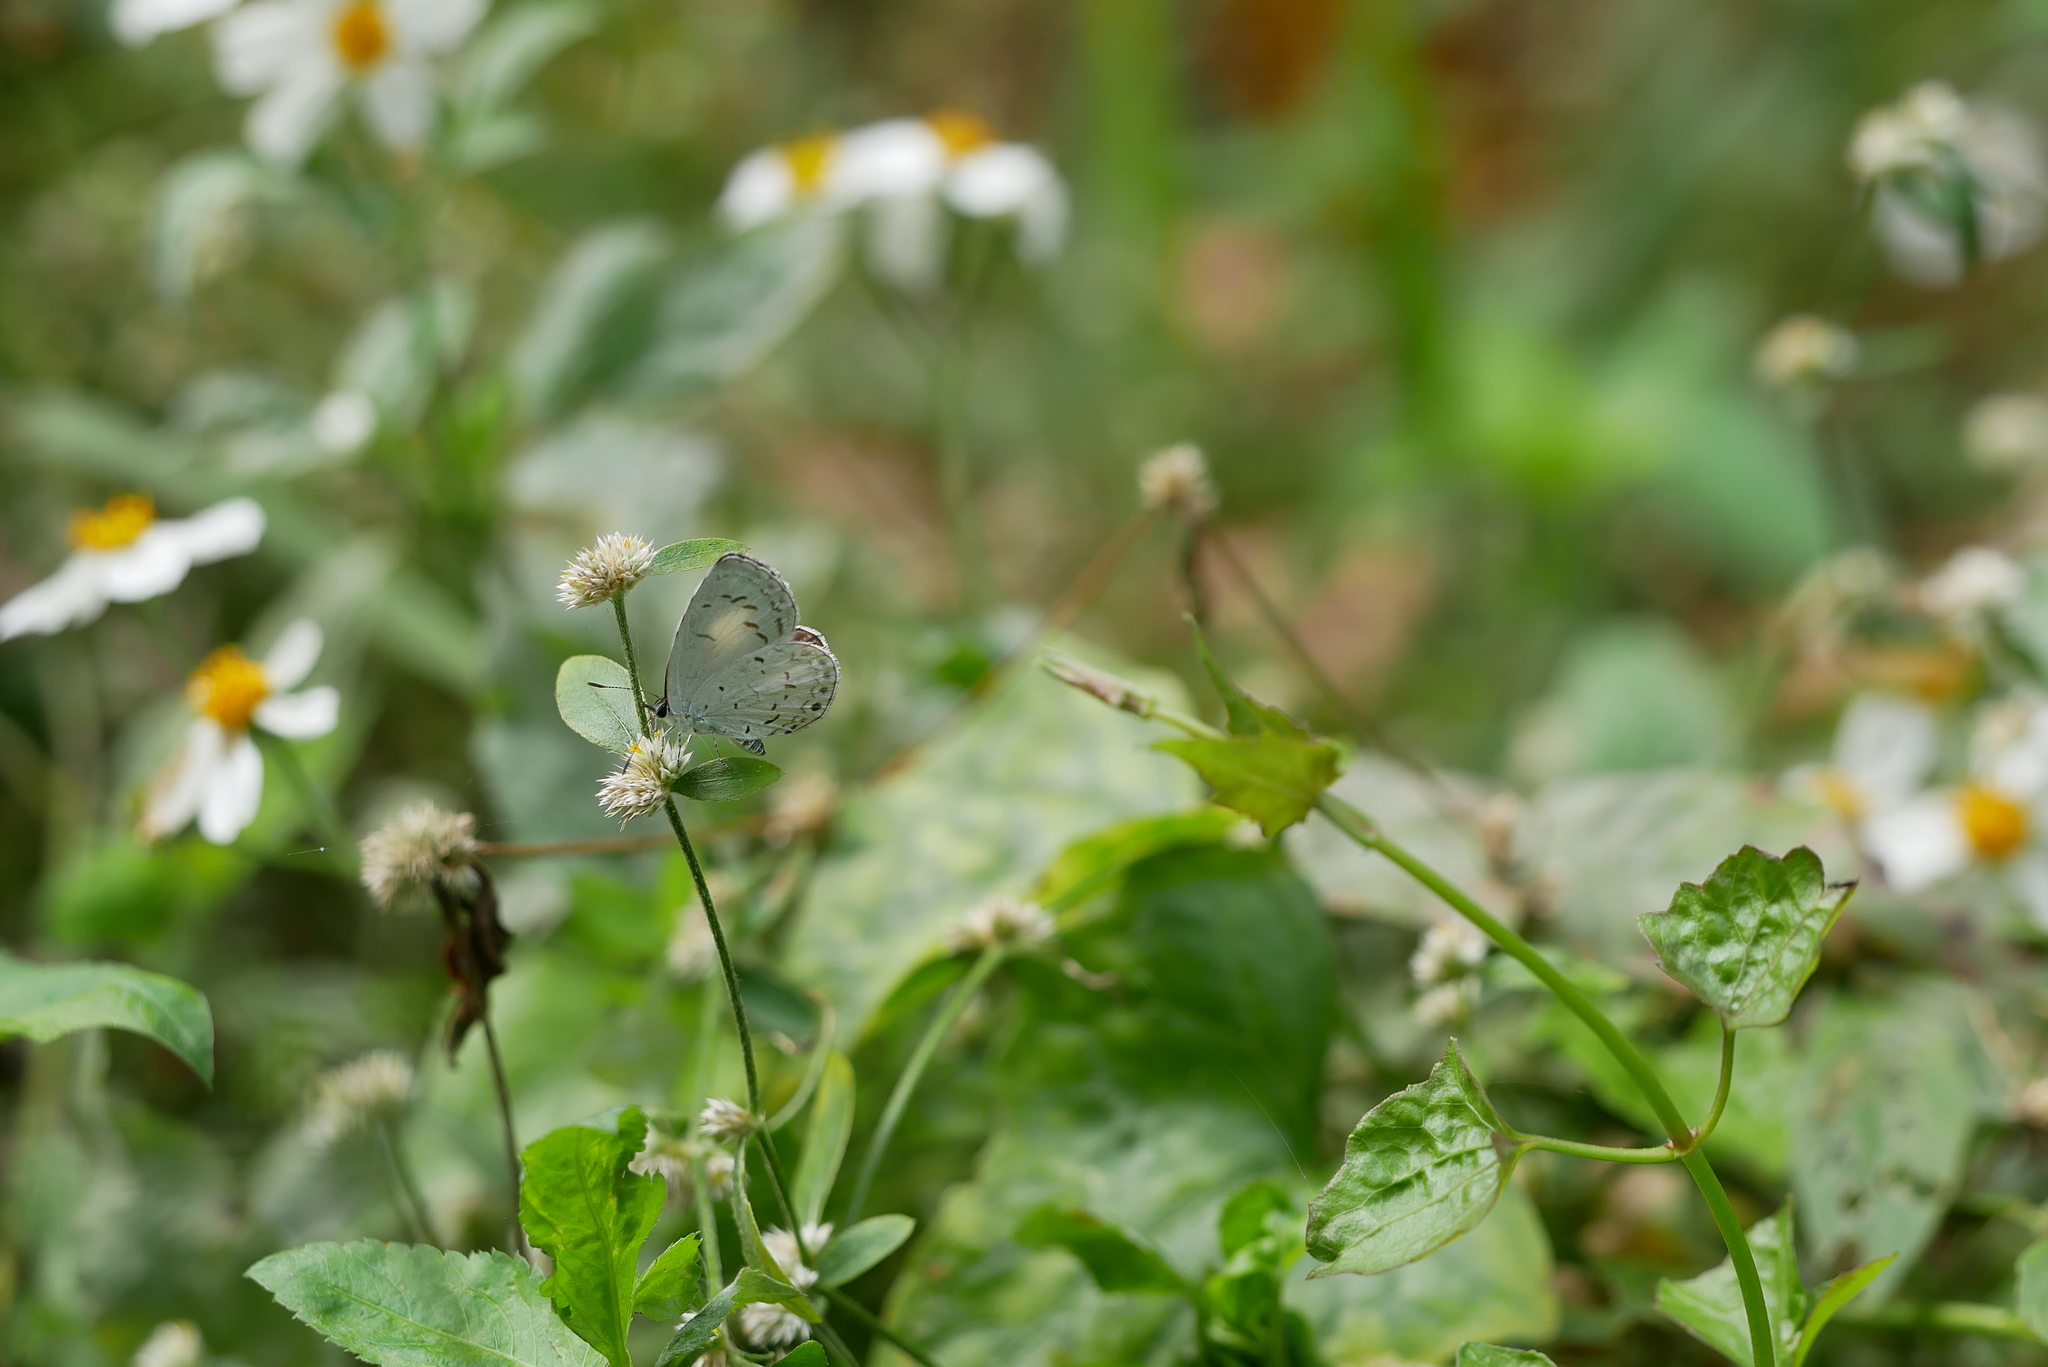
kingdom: Animalia
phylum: Arthropoda
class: Insecta
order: Lepidoptera
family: Lycaenidae
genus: Acytolepis
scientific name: Acytolepis puspa
